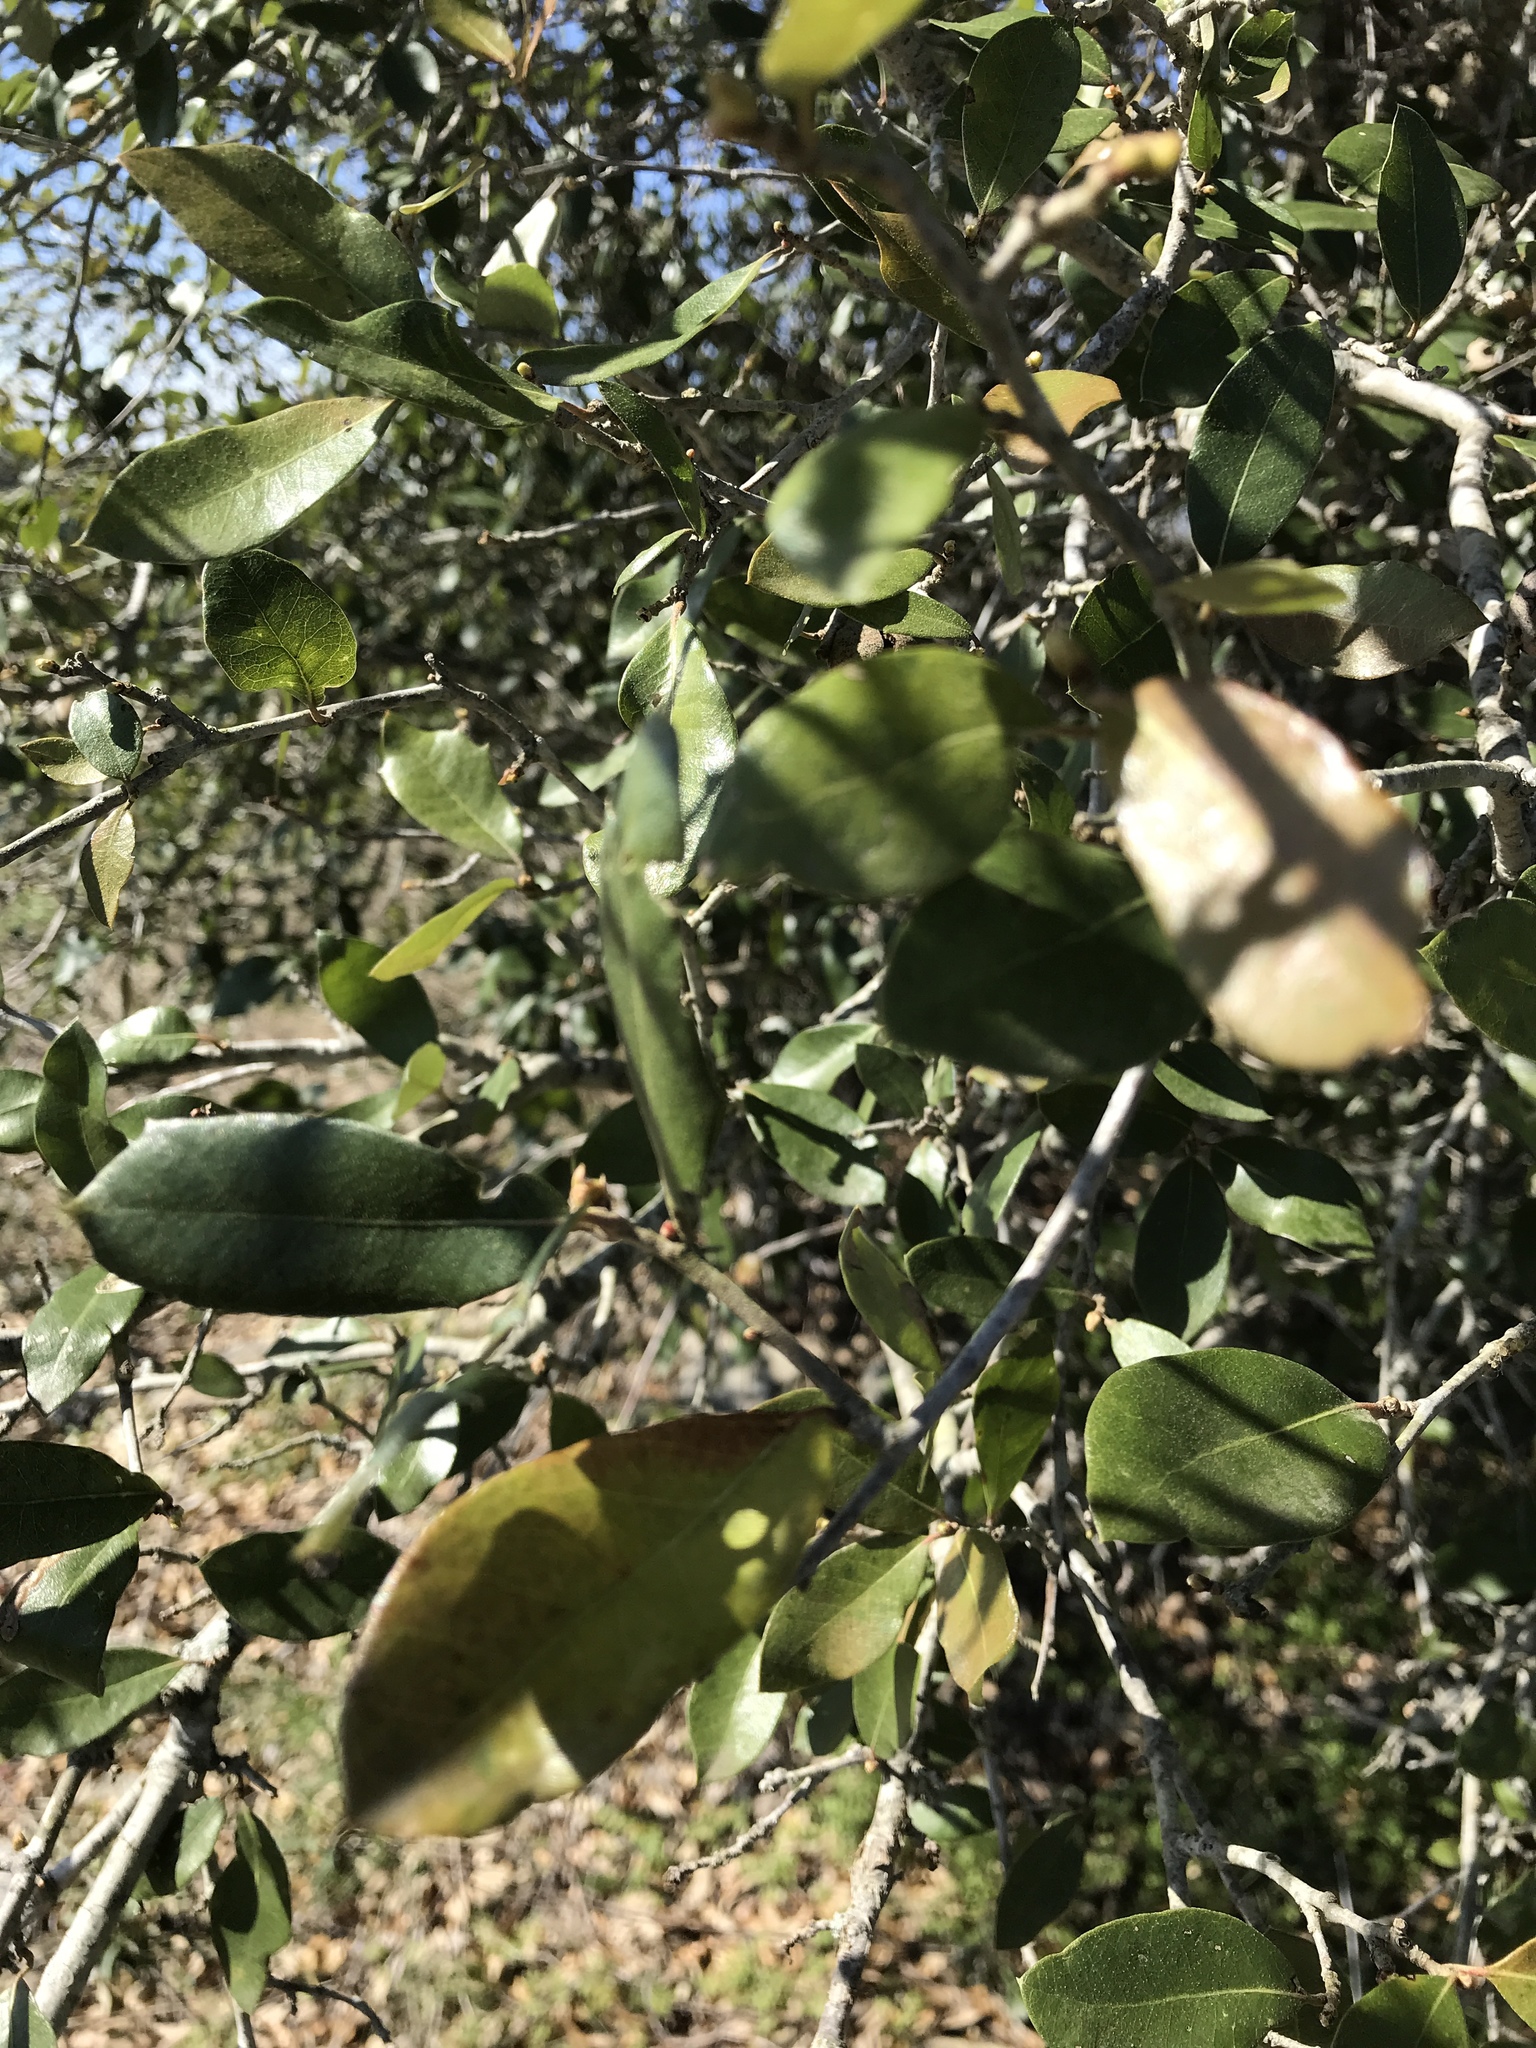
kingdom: Plantae
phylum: Tracheophyta
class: Magnoliopsida
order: Fagales
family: Fagaceae
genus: Quercus
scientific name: Quercus fusiformis
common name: Texas live oak
